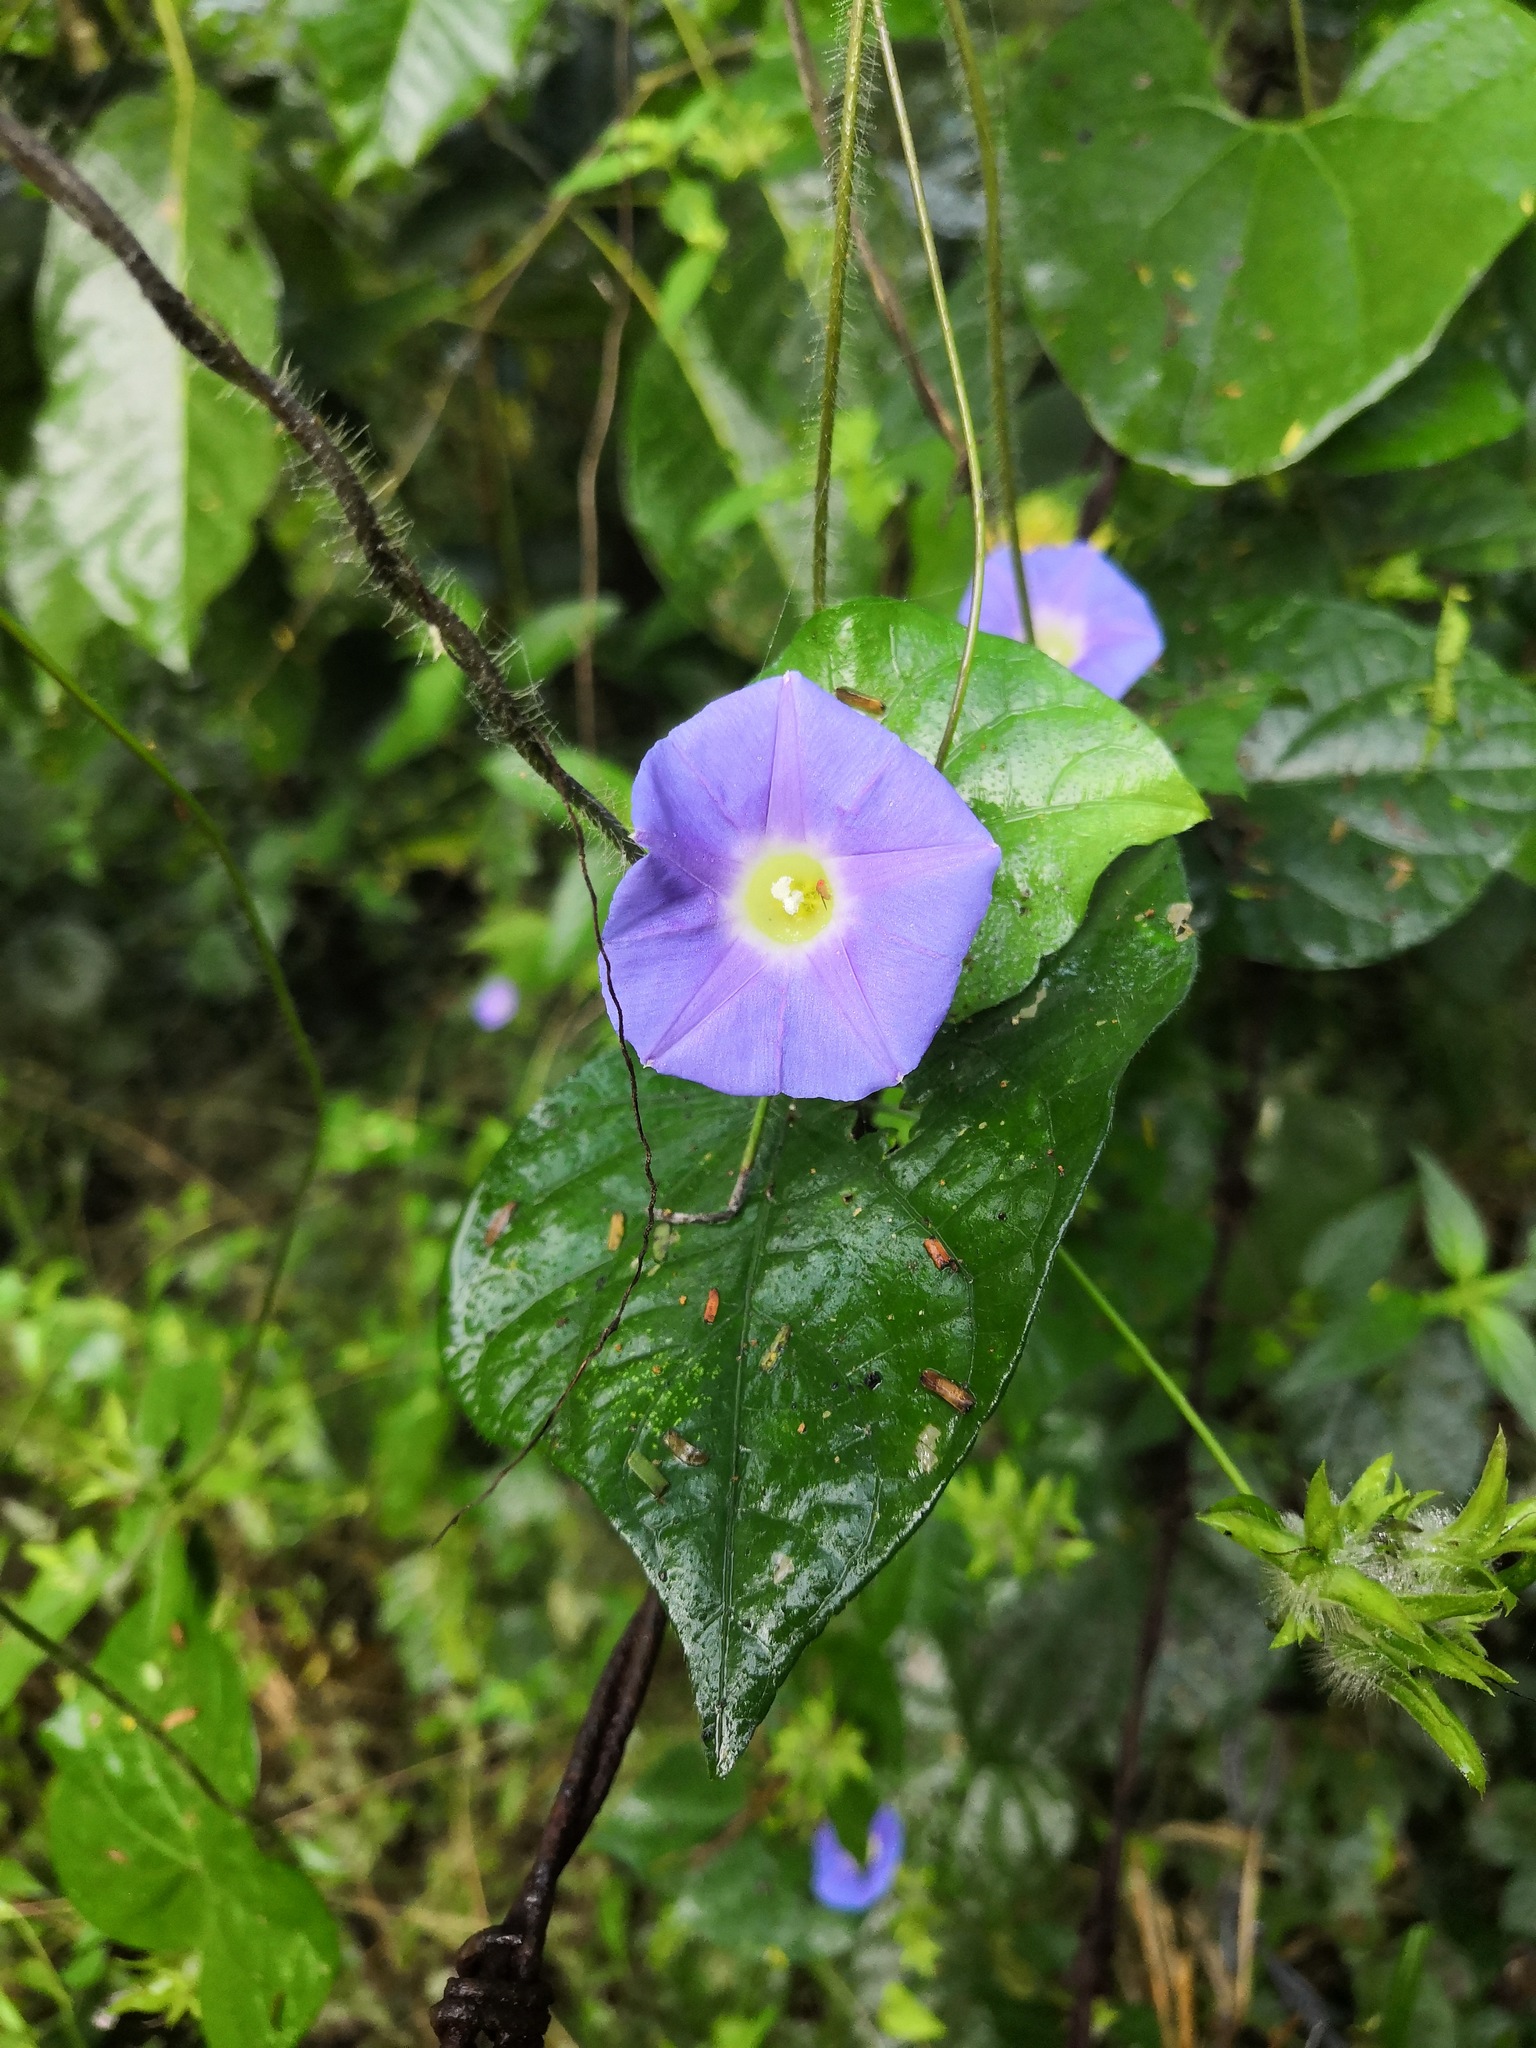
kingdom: Plantae
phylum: Tracheophyta
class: Magnoliopsida
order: Solanales
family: Convolvulaceae
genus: Ipomoea
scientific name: Ipomoea meyeri
